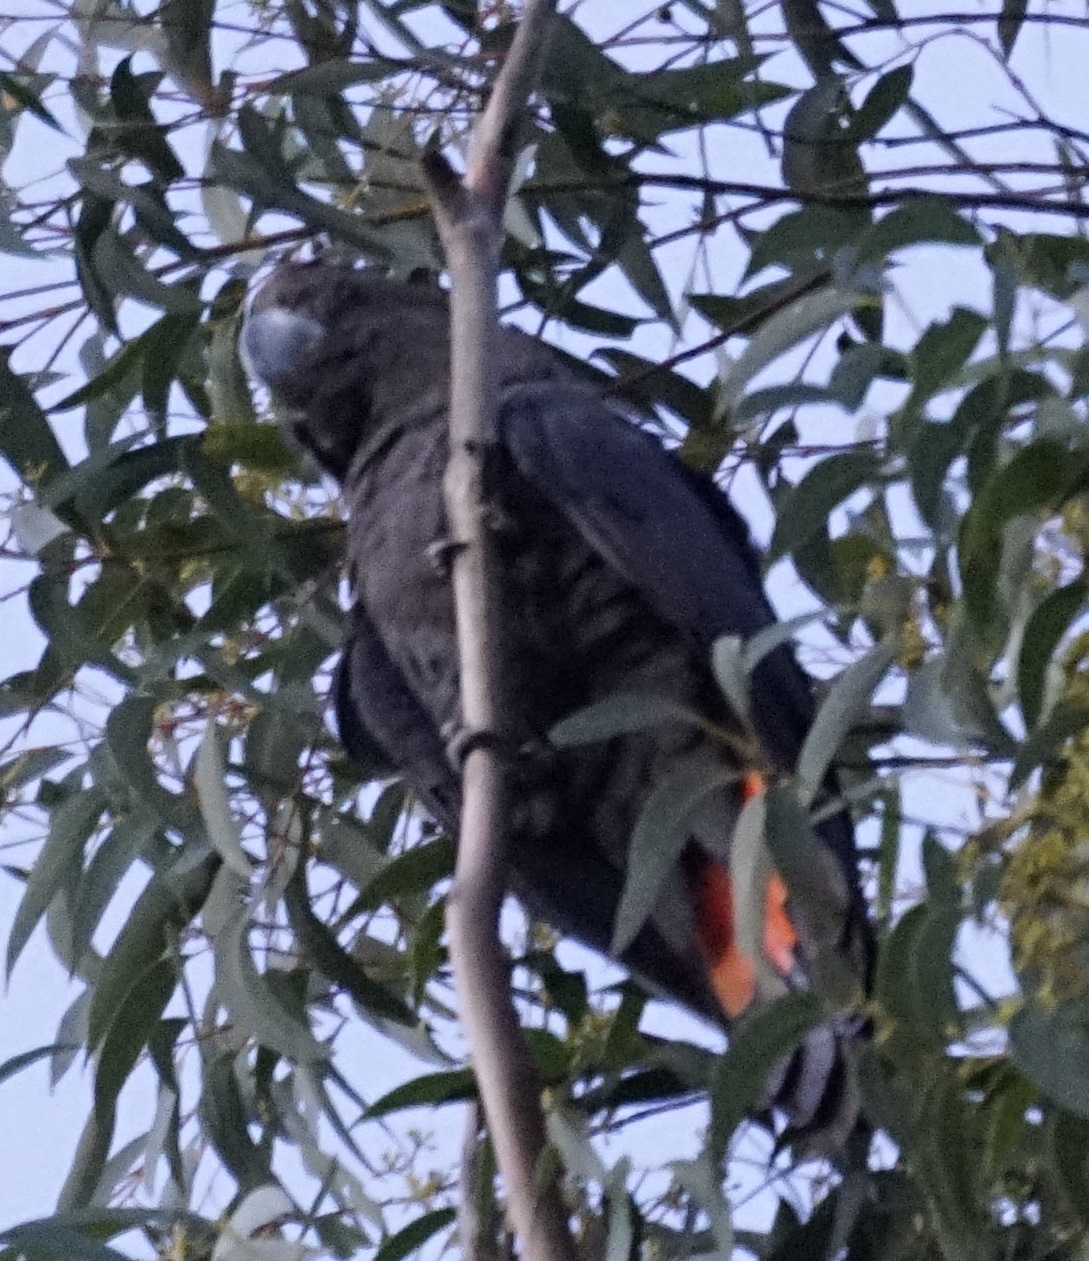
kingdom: Animalia
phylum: Chordata
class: Aves
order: Psittaciformes
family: Psittacidae
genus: Calyptorhynchus
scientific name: Calyptorhynchus lathami
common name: Glossy black cockatoo
